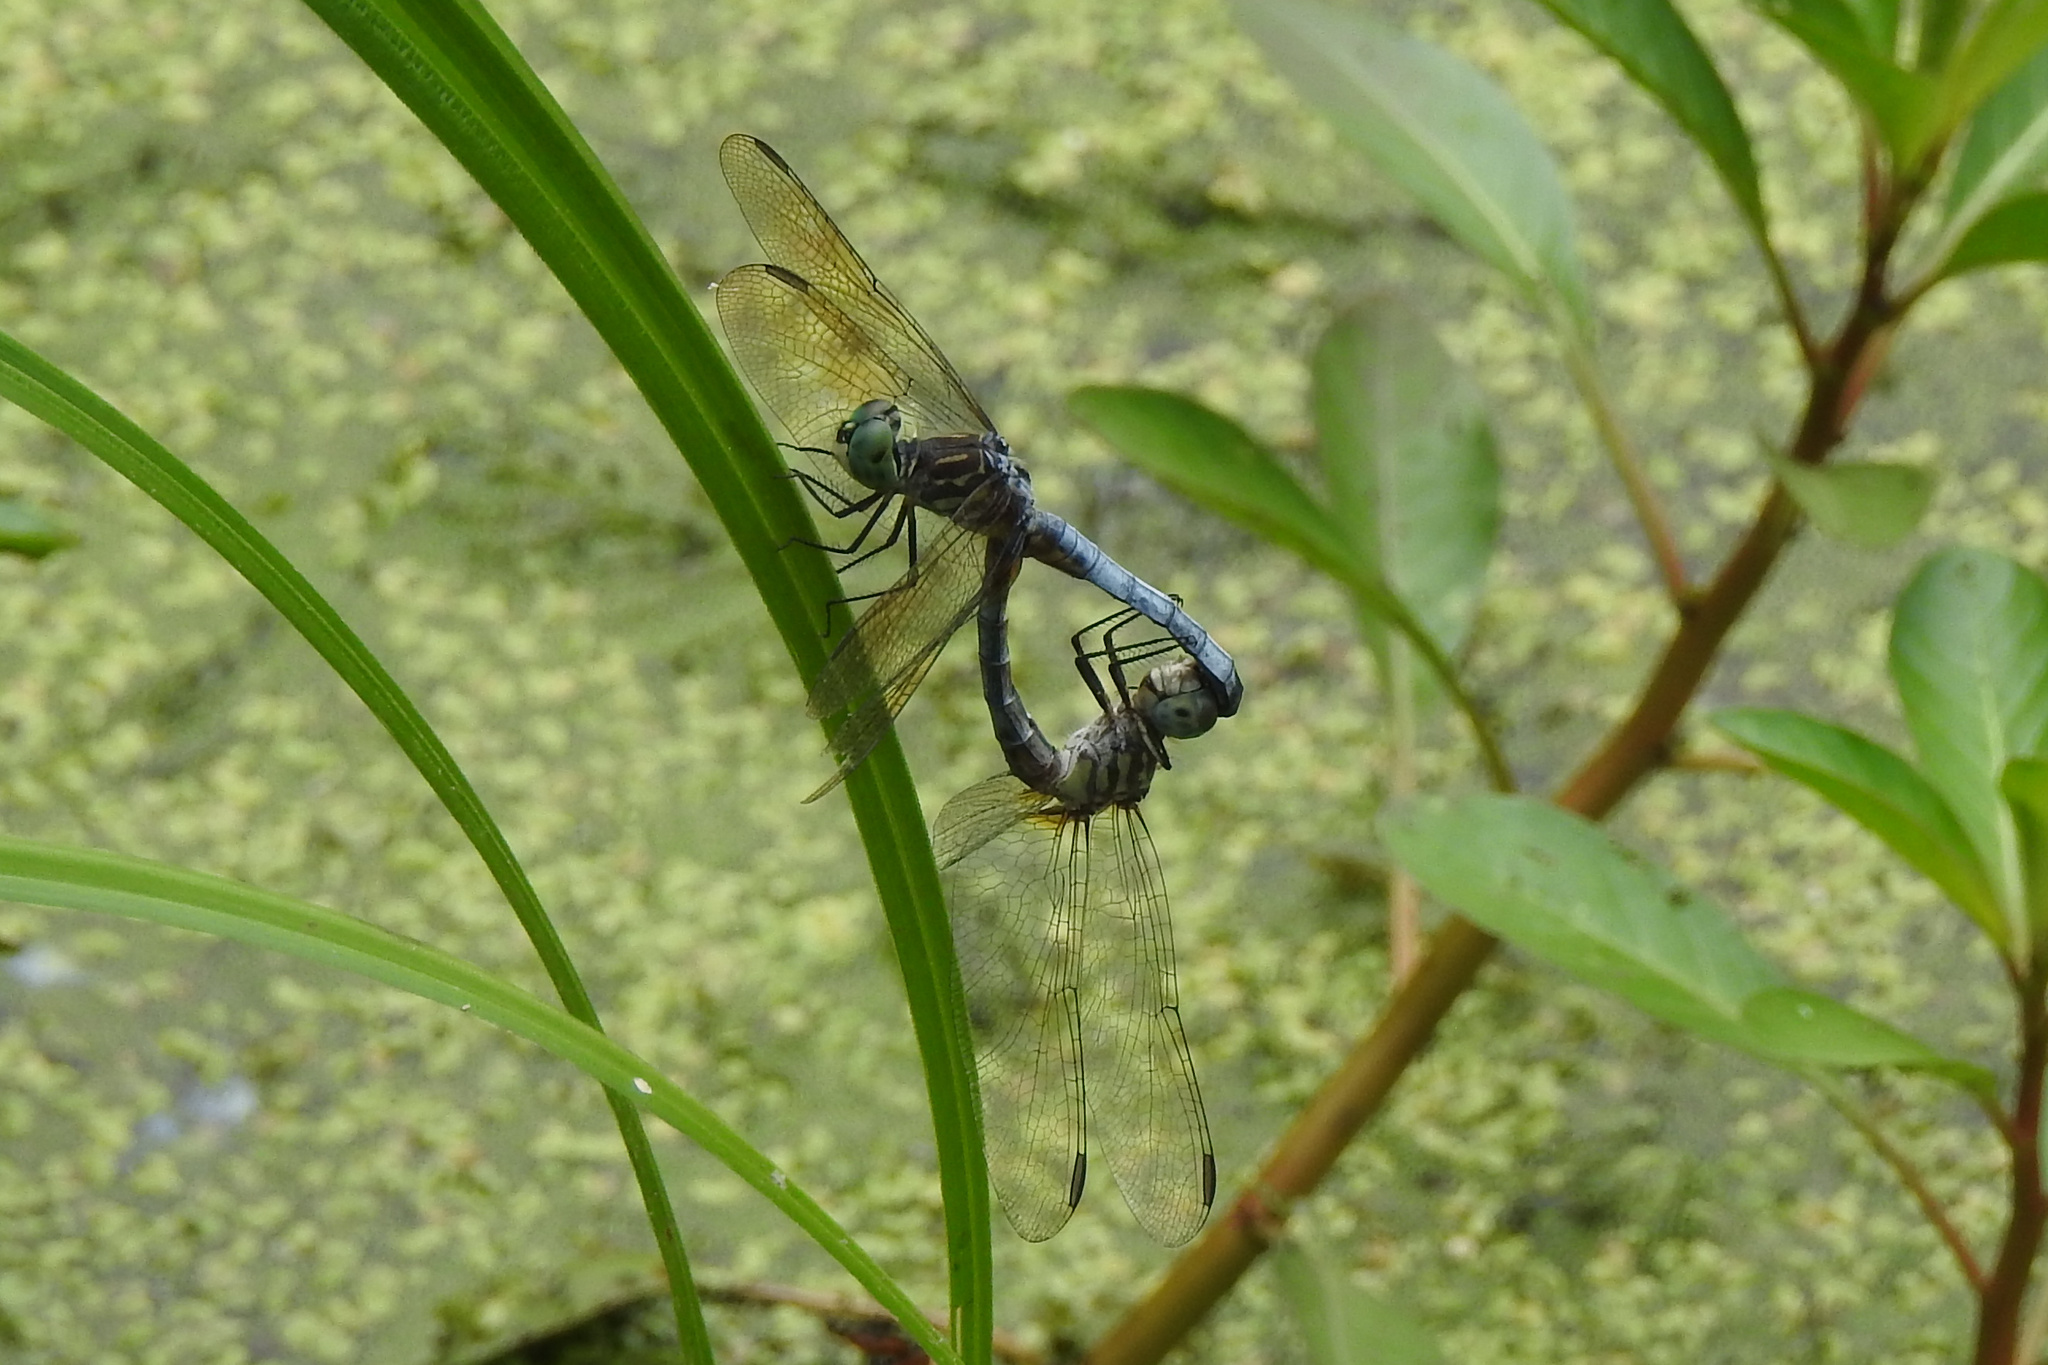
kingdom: Animalia
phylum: Arthropoda
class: Insecta
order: Odonata
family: Libellulidae
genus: Pachydiplax
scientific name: Pachydiplax longipennis
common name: Blue dasher
